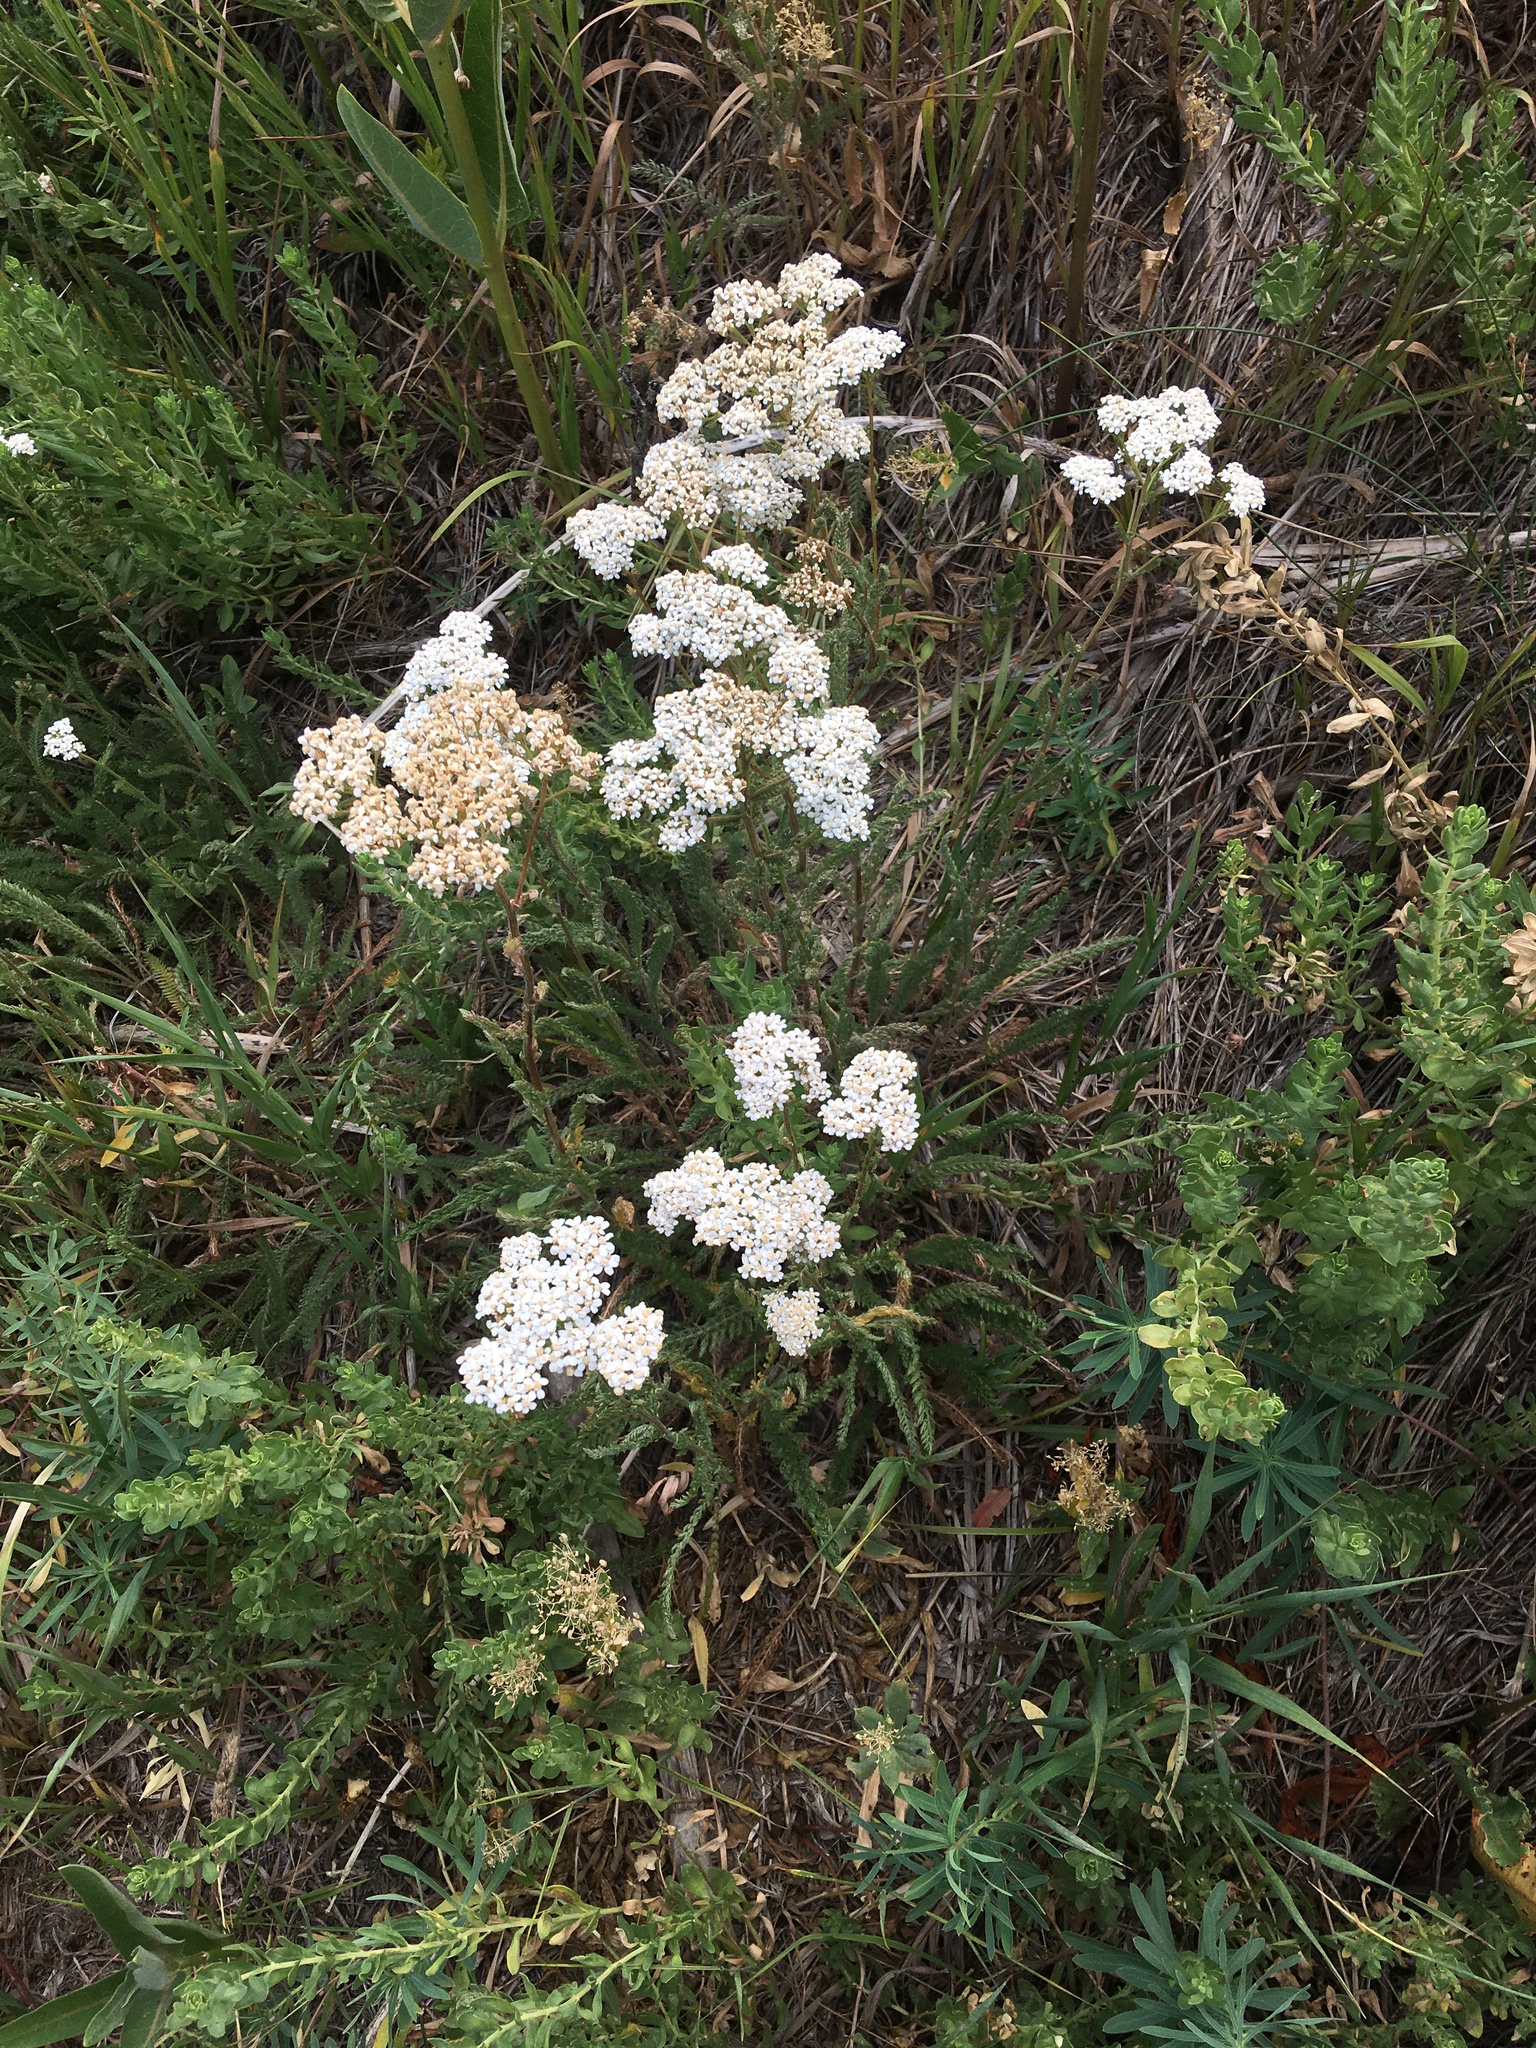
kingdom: Plantae
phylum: Tracheophyta
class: Magnoliopsida
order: Asterales
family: Asteraceae
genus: Achillea
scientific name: Achillea millefolium
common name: Yarrow
